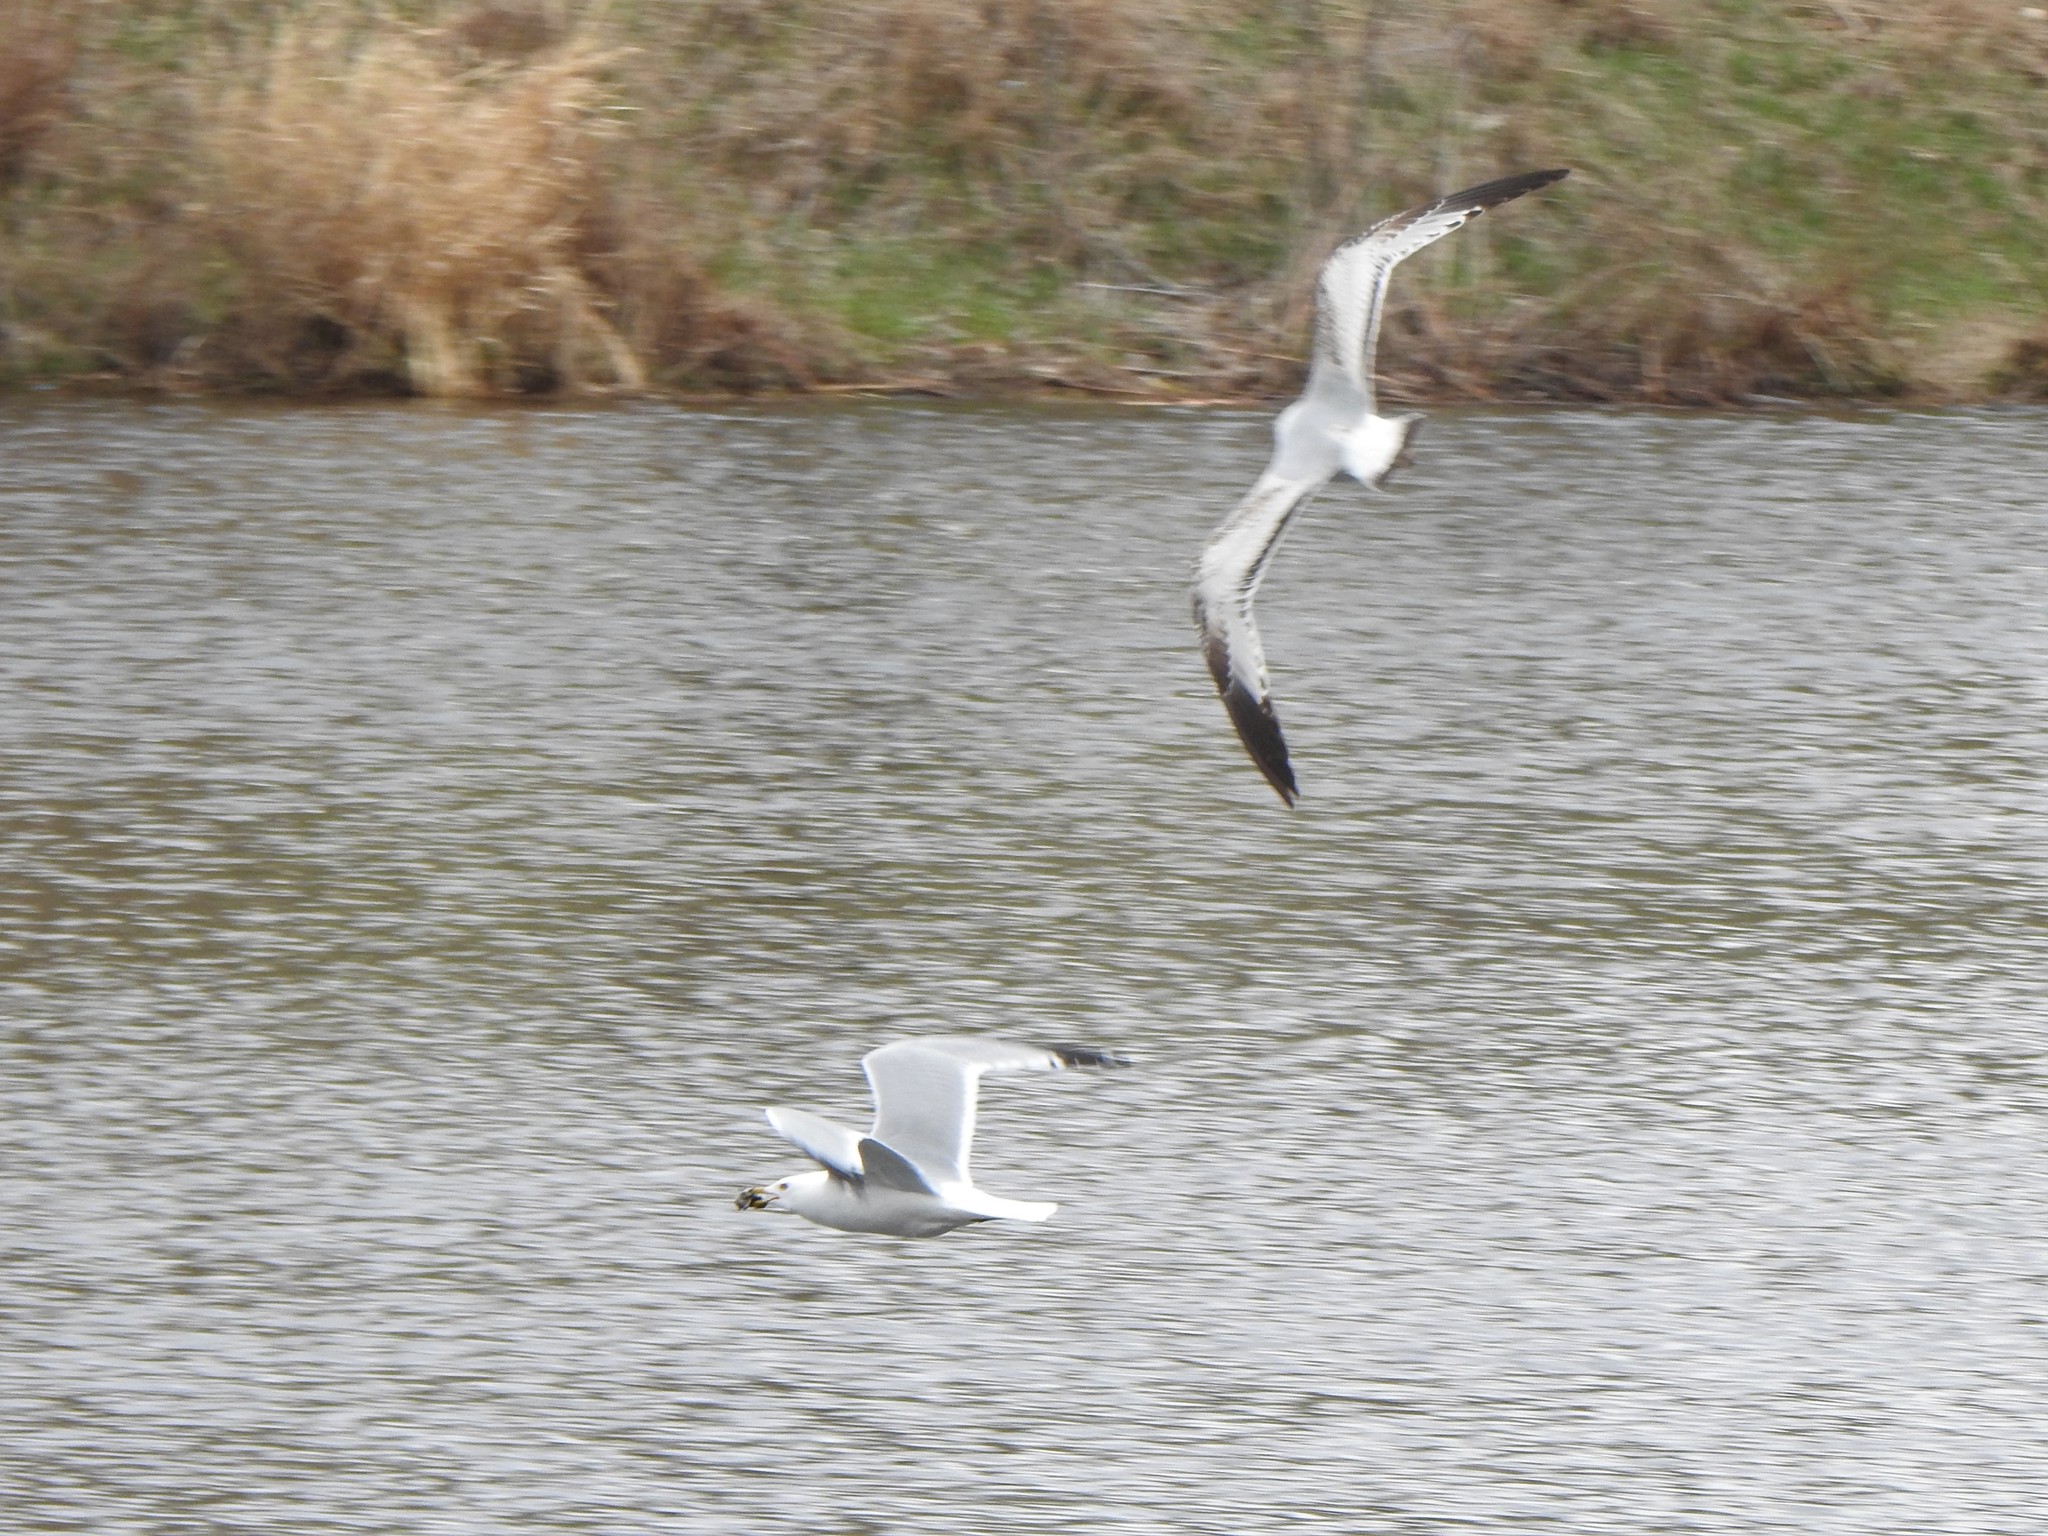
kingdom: Animalia
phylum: Chordata
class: Aves
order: Charadriiformes
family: Laridae
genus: Larus
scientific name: Larus delawarensis
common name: Ring-billed gull
